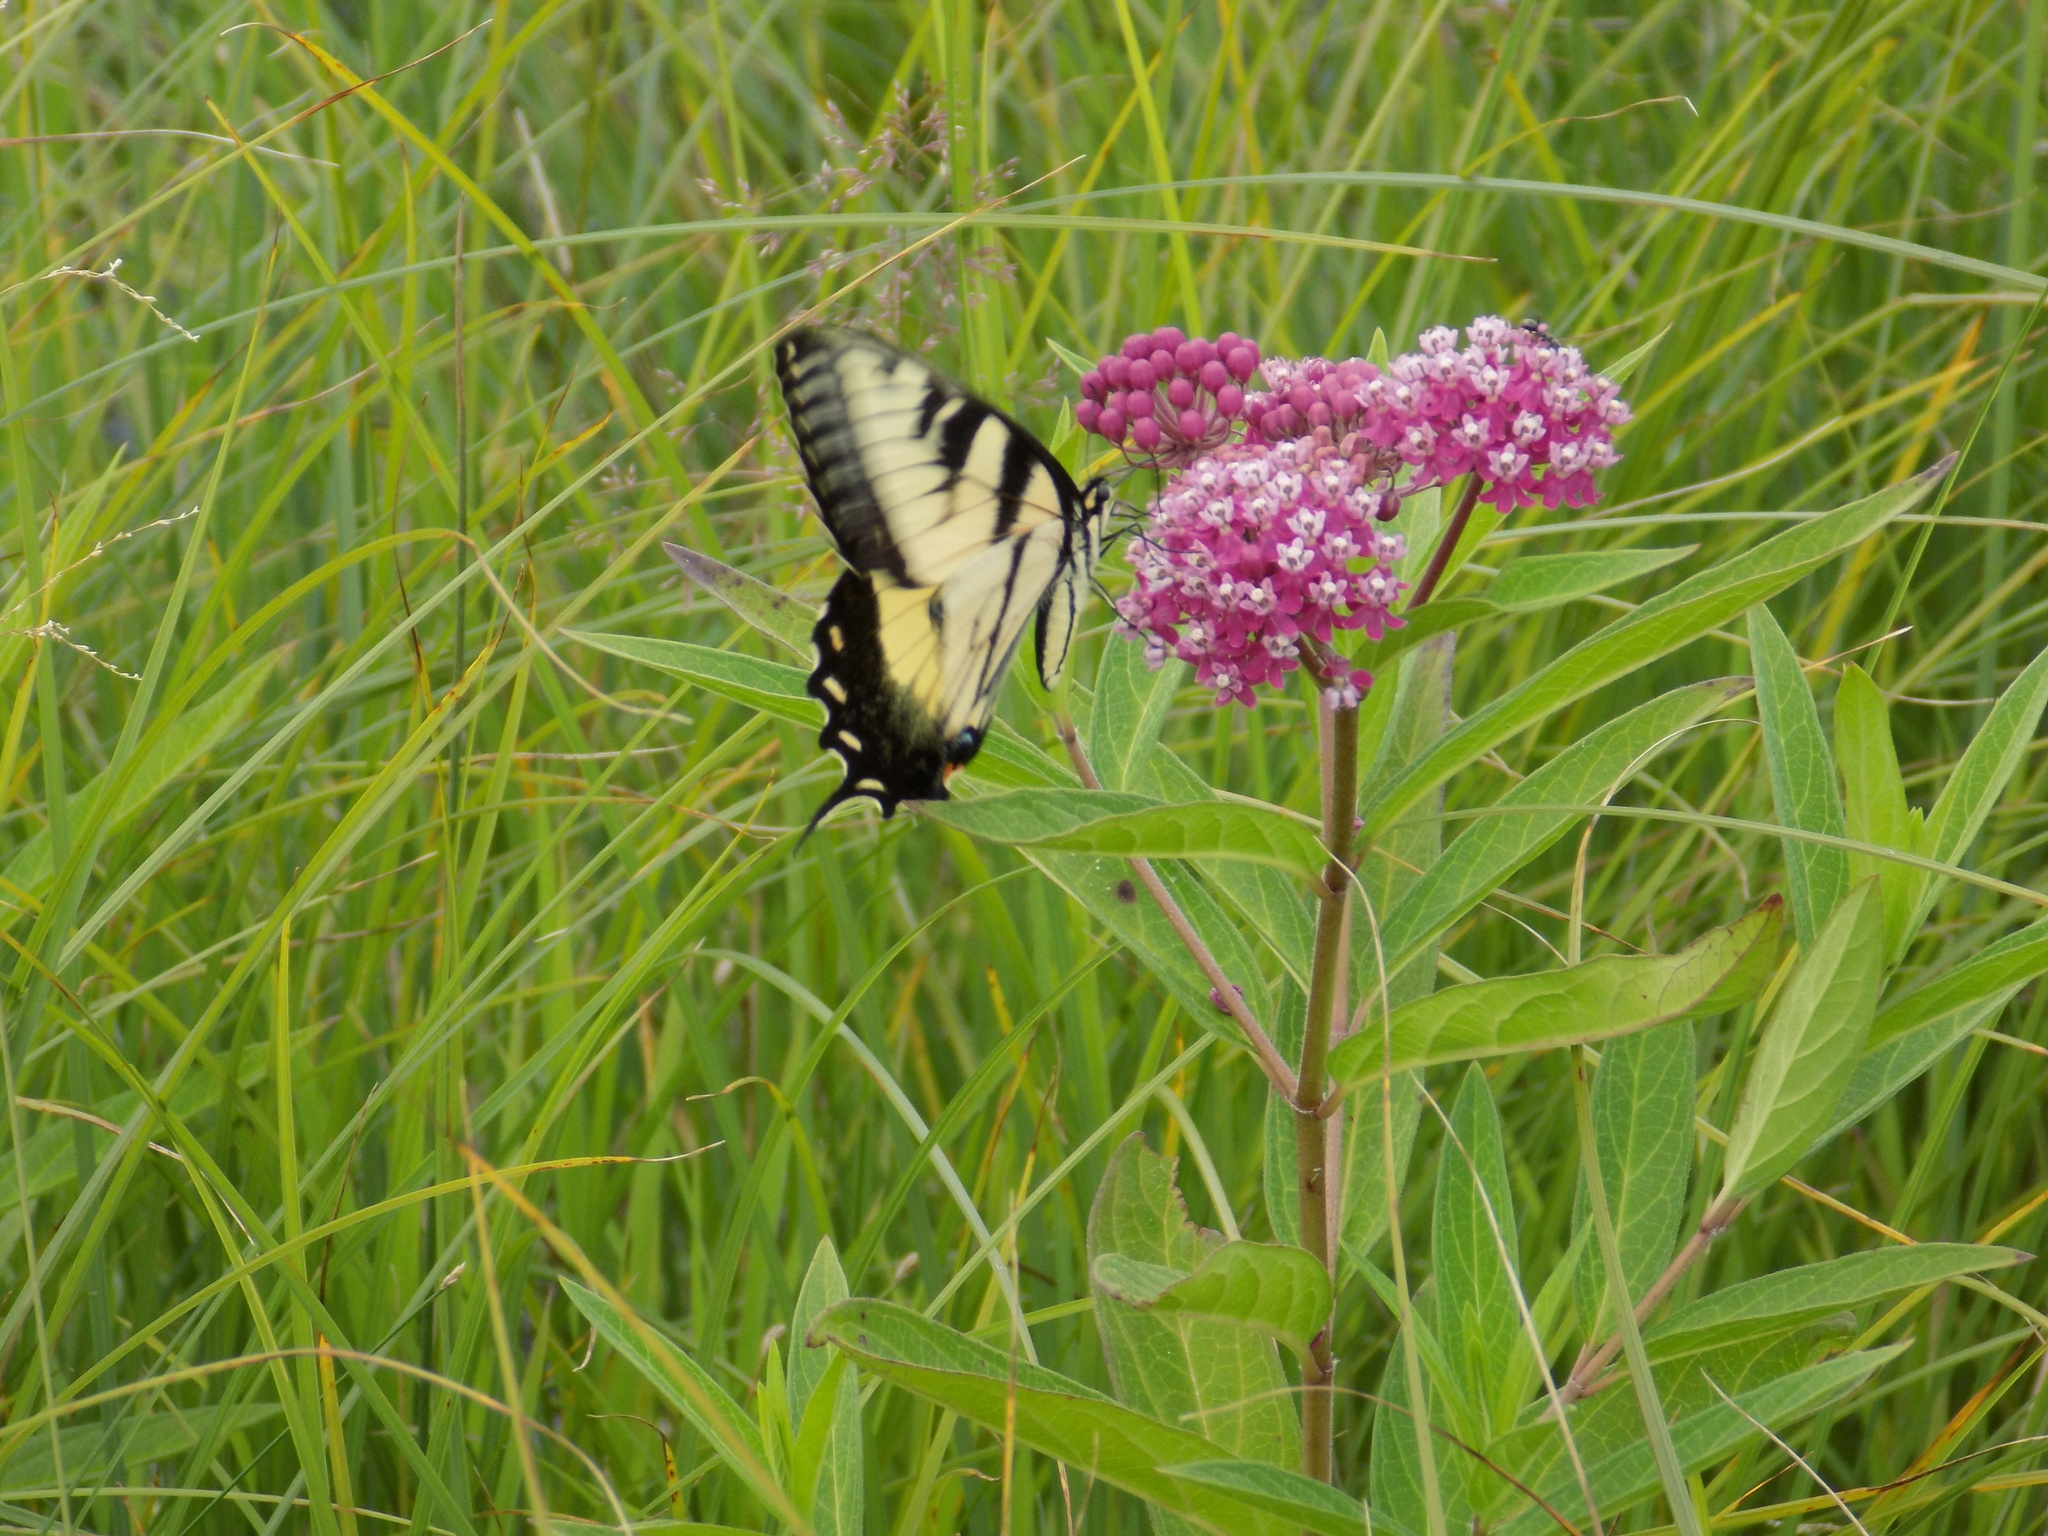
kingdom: Animalia
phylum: Arthropoda
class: Insecta
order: Lepidoptera
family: Papilionidae
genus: Papilio
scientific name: Papilio glaucus
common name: Tiger swallowtail
